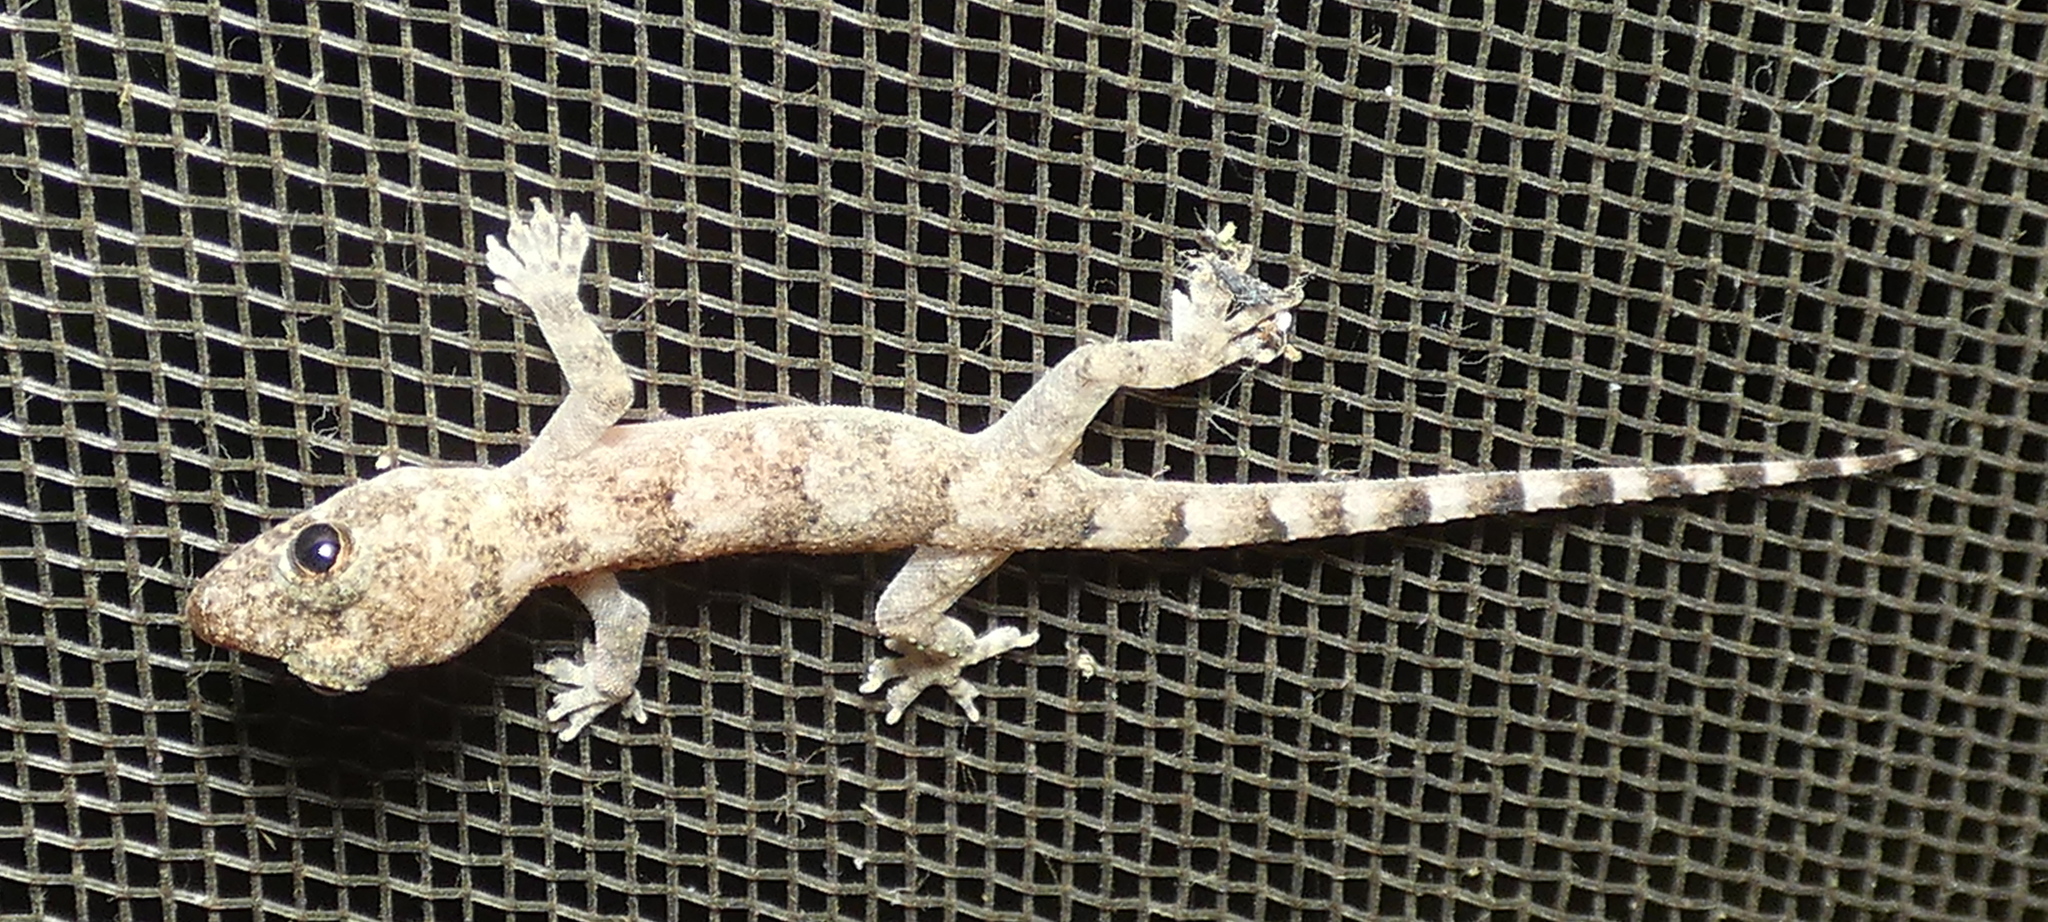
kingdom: Animalia
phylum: Chordata
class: Squamata
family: Gekkonidae
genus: Hemidactylus
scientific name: Hemidactylus mabouia
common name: House gecko
